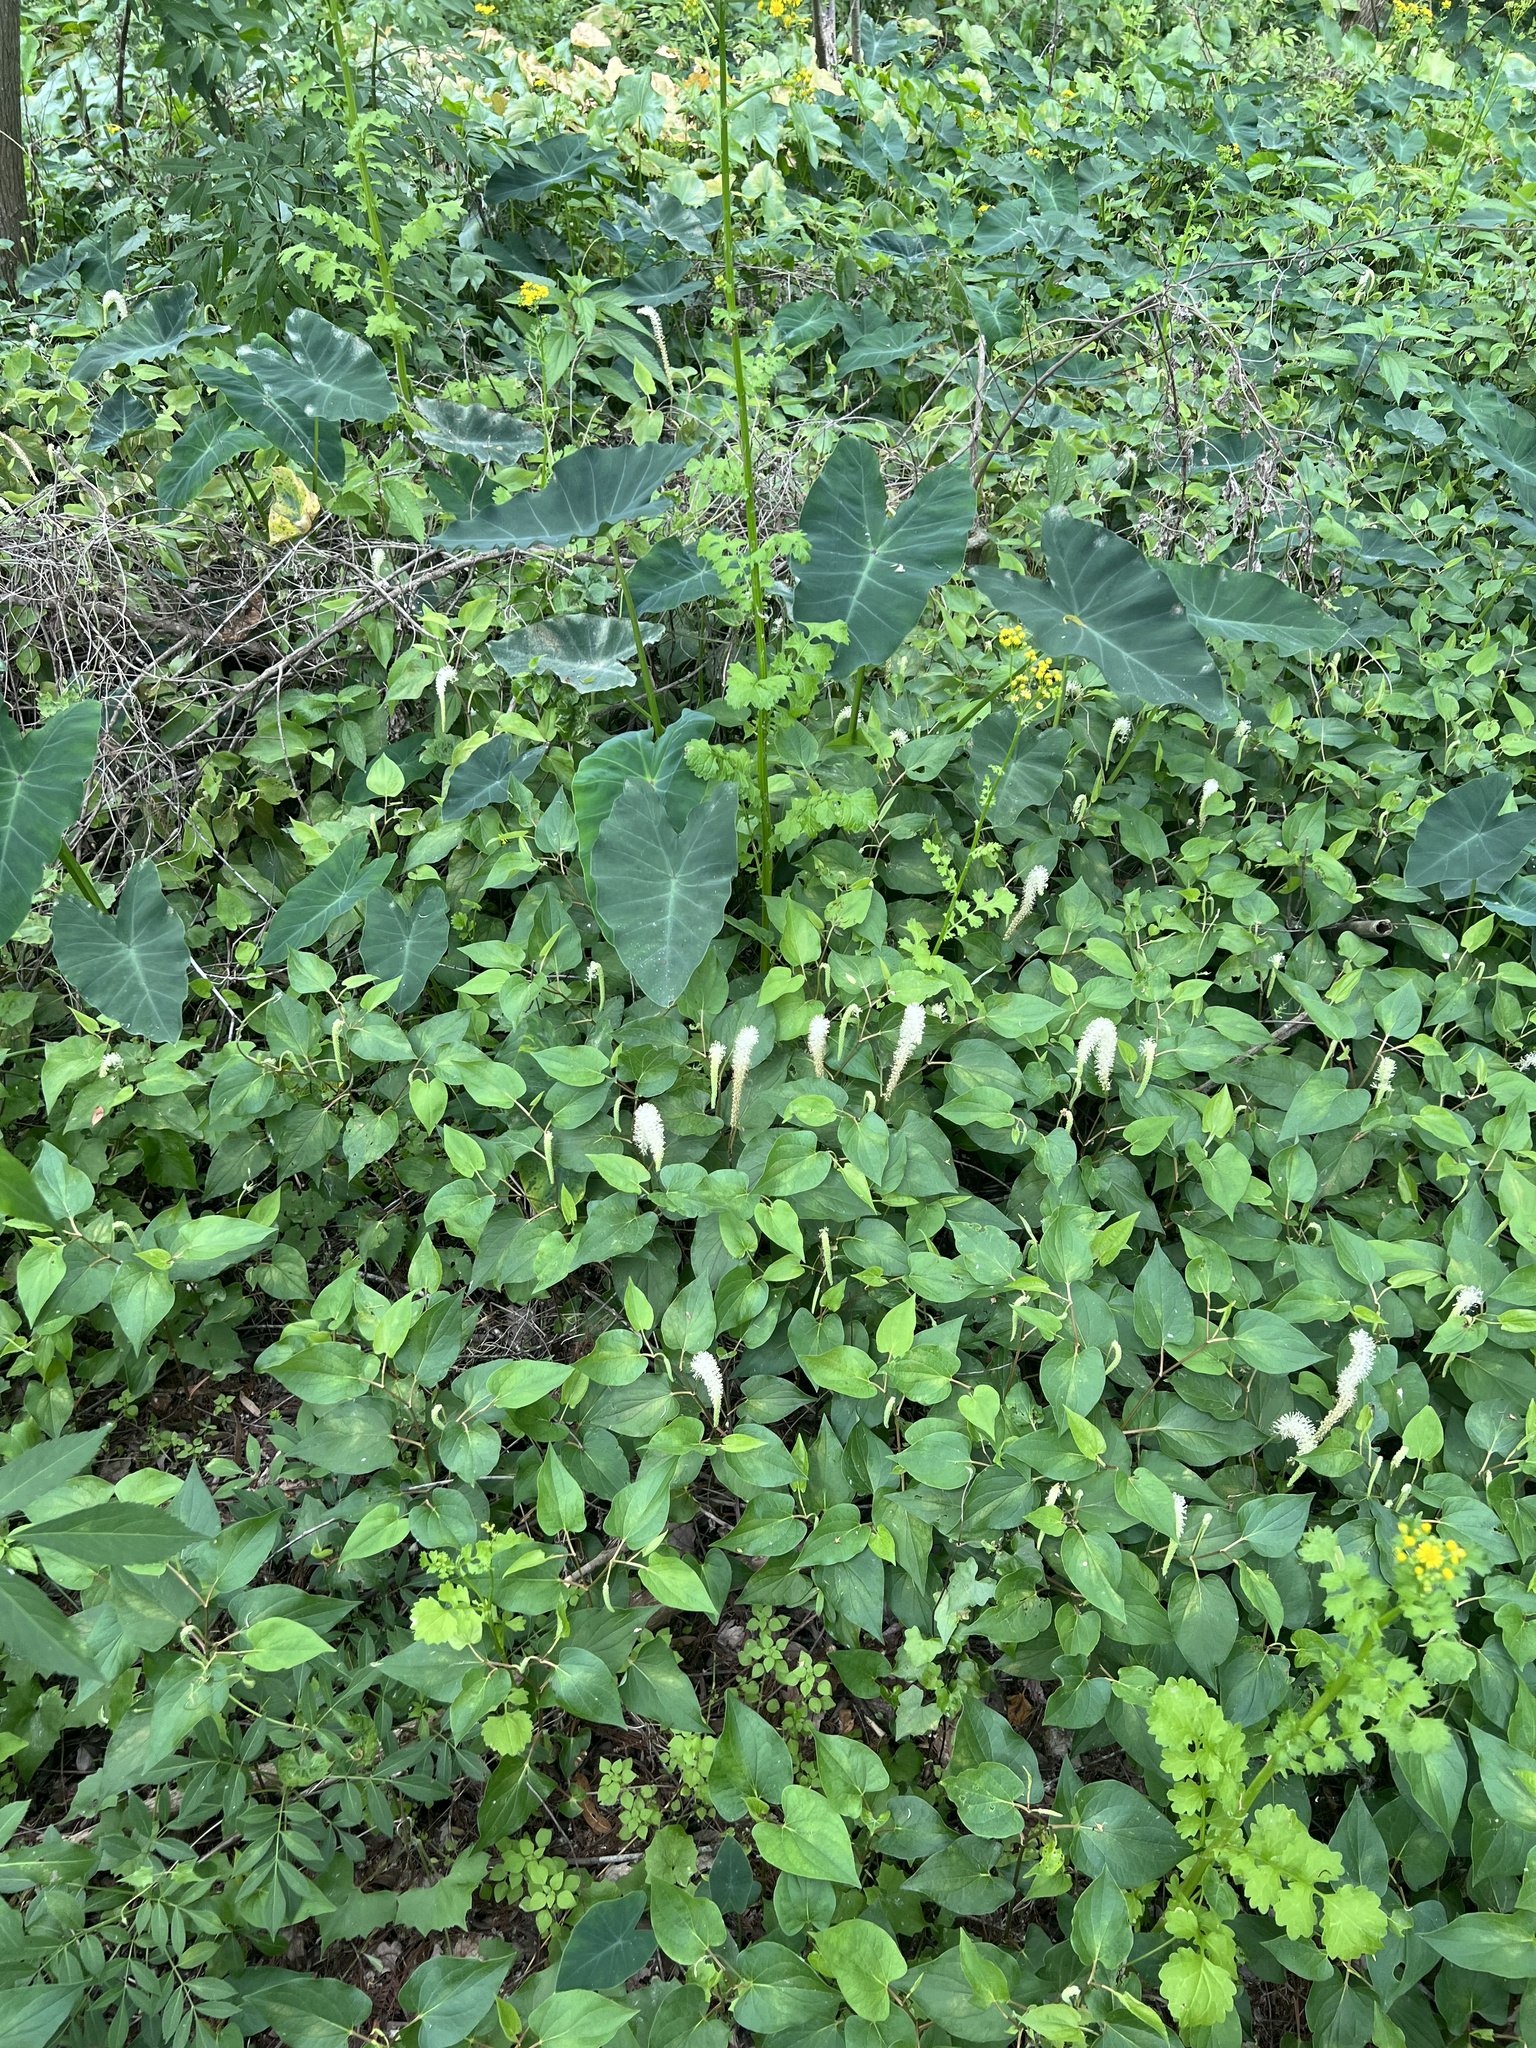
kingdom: Plantae
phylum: Tracheophyta
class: Magnoliopsida
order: Piperales
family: Saururaceae
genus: Saururus
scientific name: Saururus cernuus
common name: Lizard's-tail
